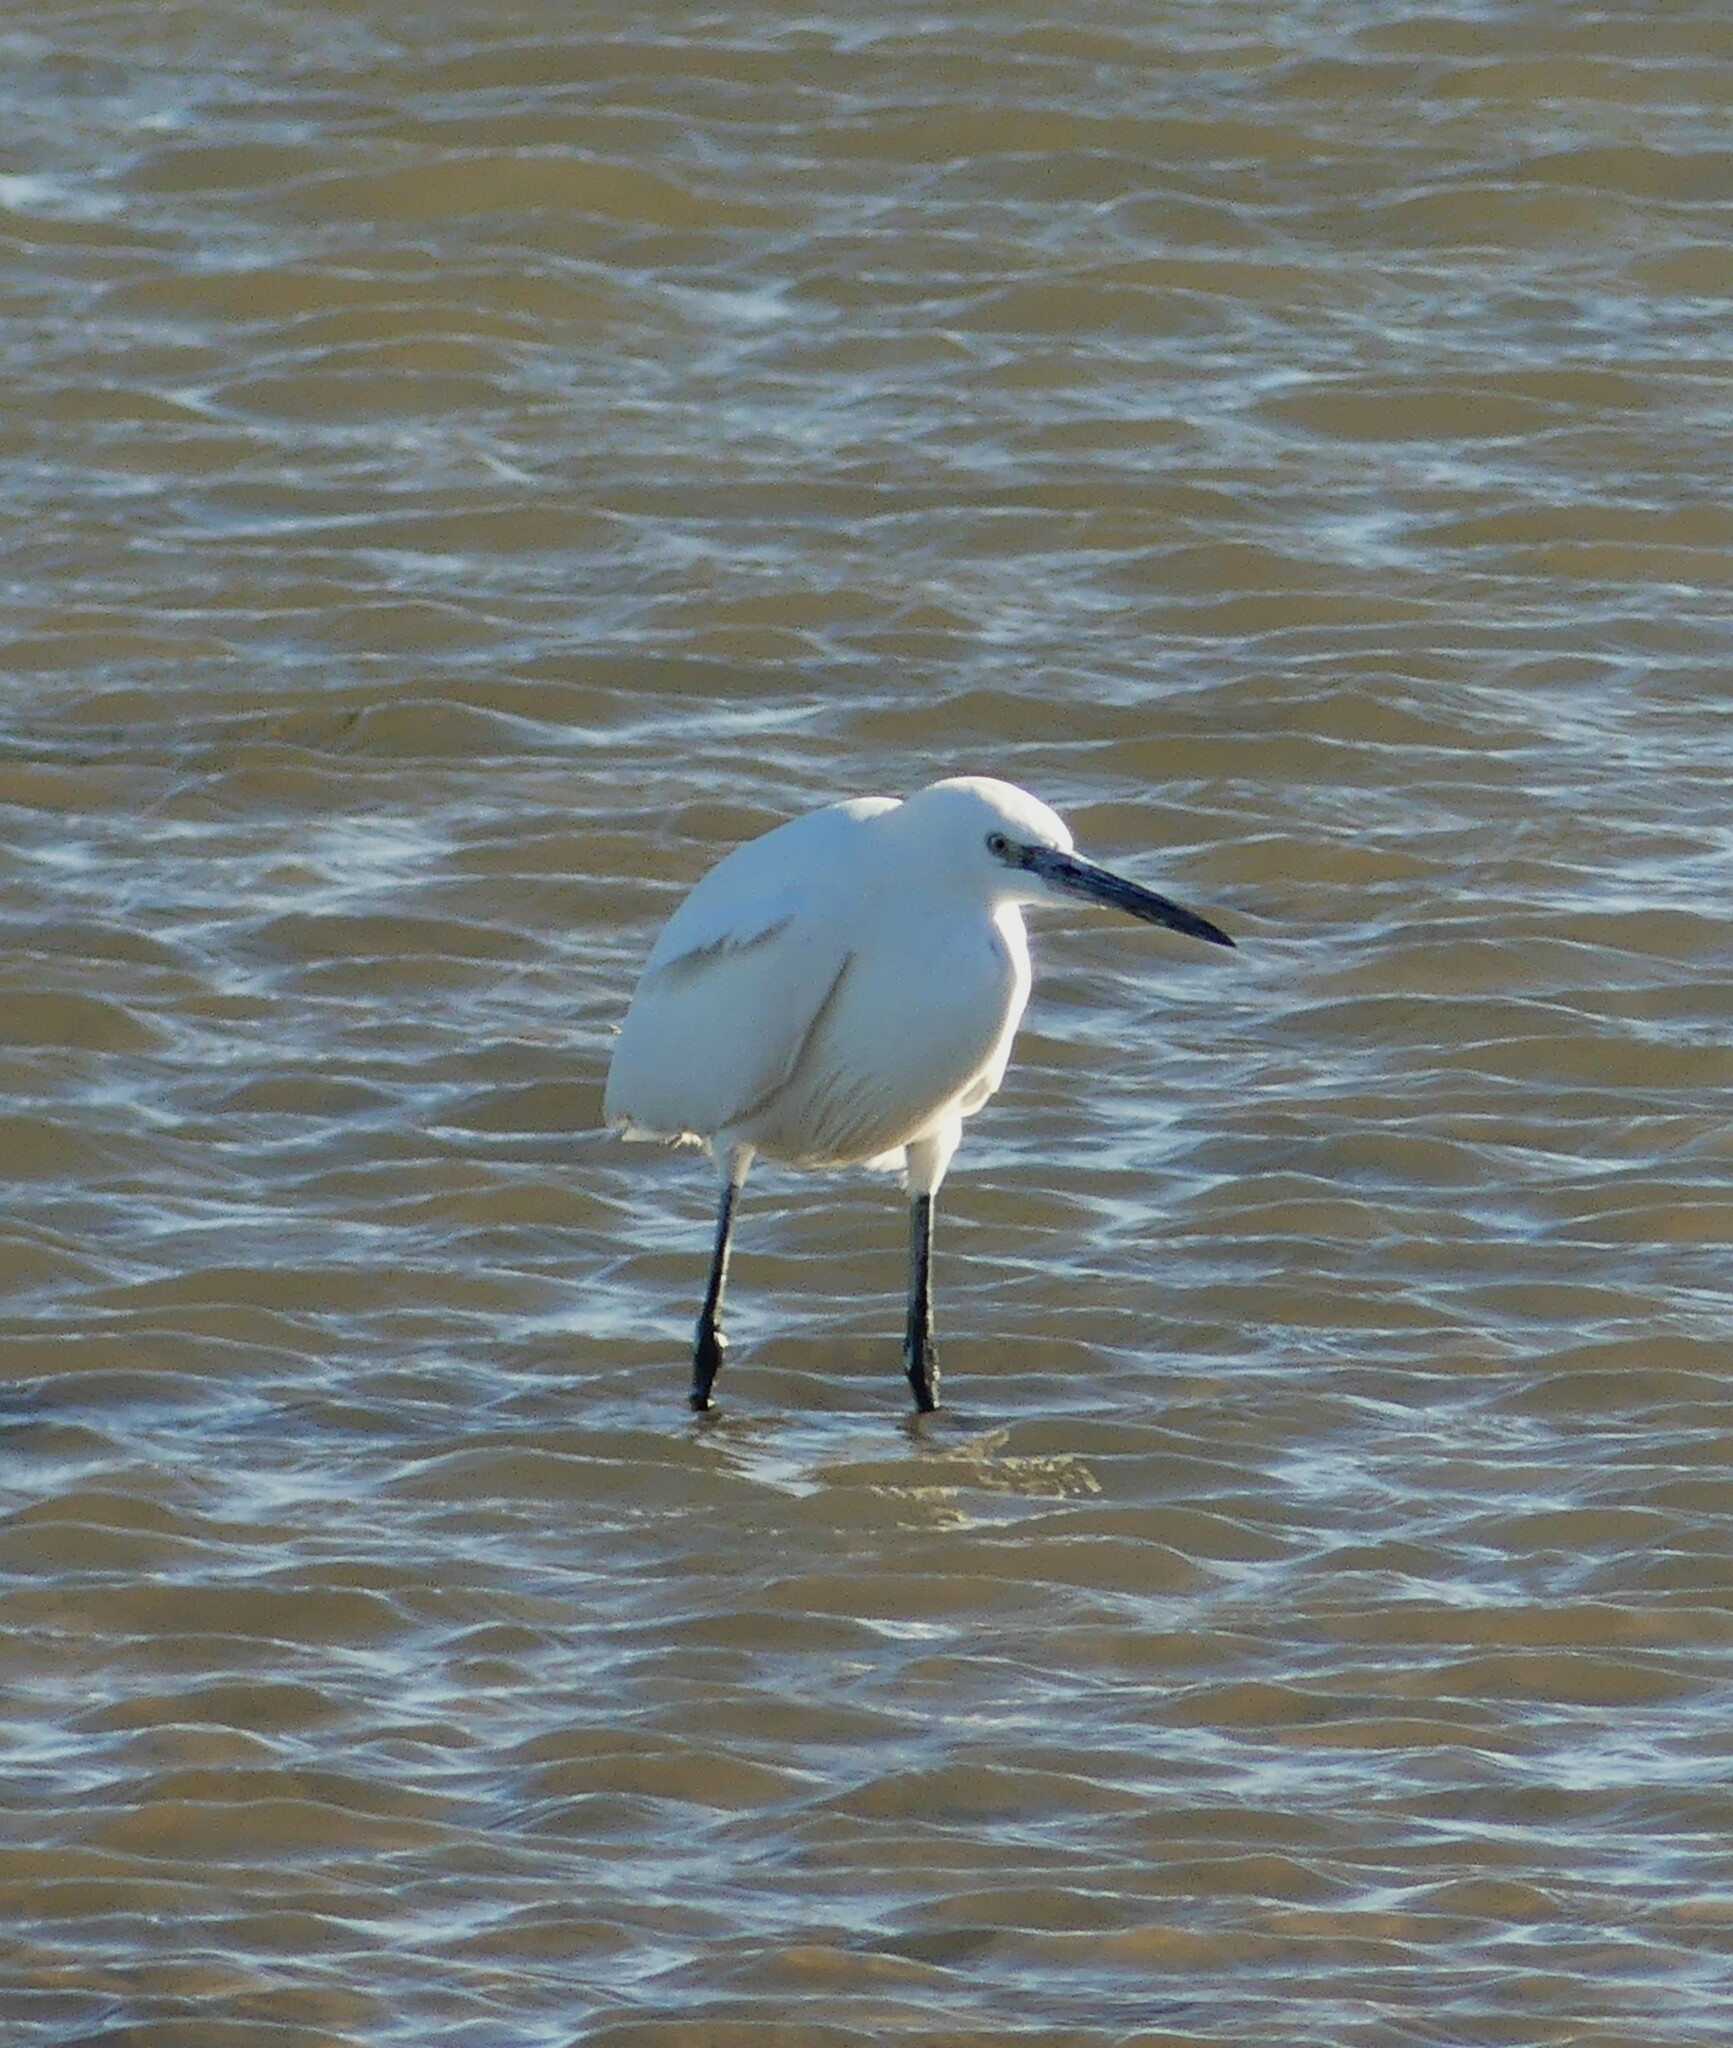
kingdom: Animalia
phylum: Chordata
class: Aves
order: Pelecaniformes
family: Ardeidae
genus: Egretta
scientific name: Egretta garzetta
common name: Little egret
